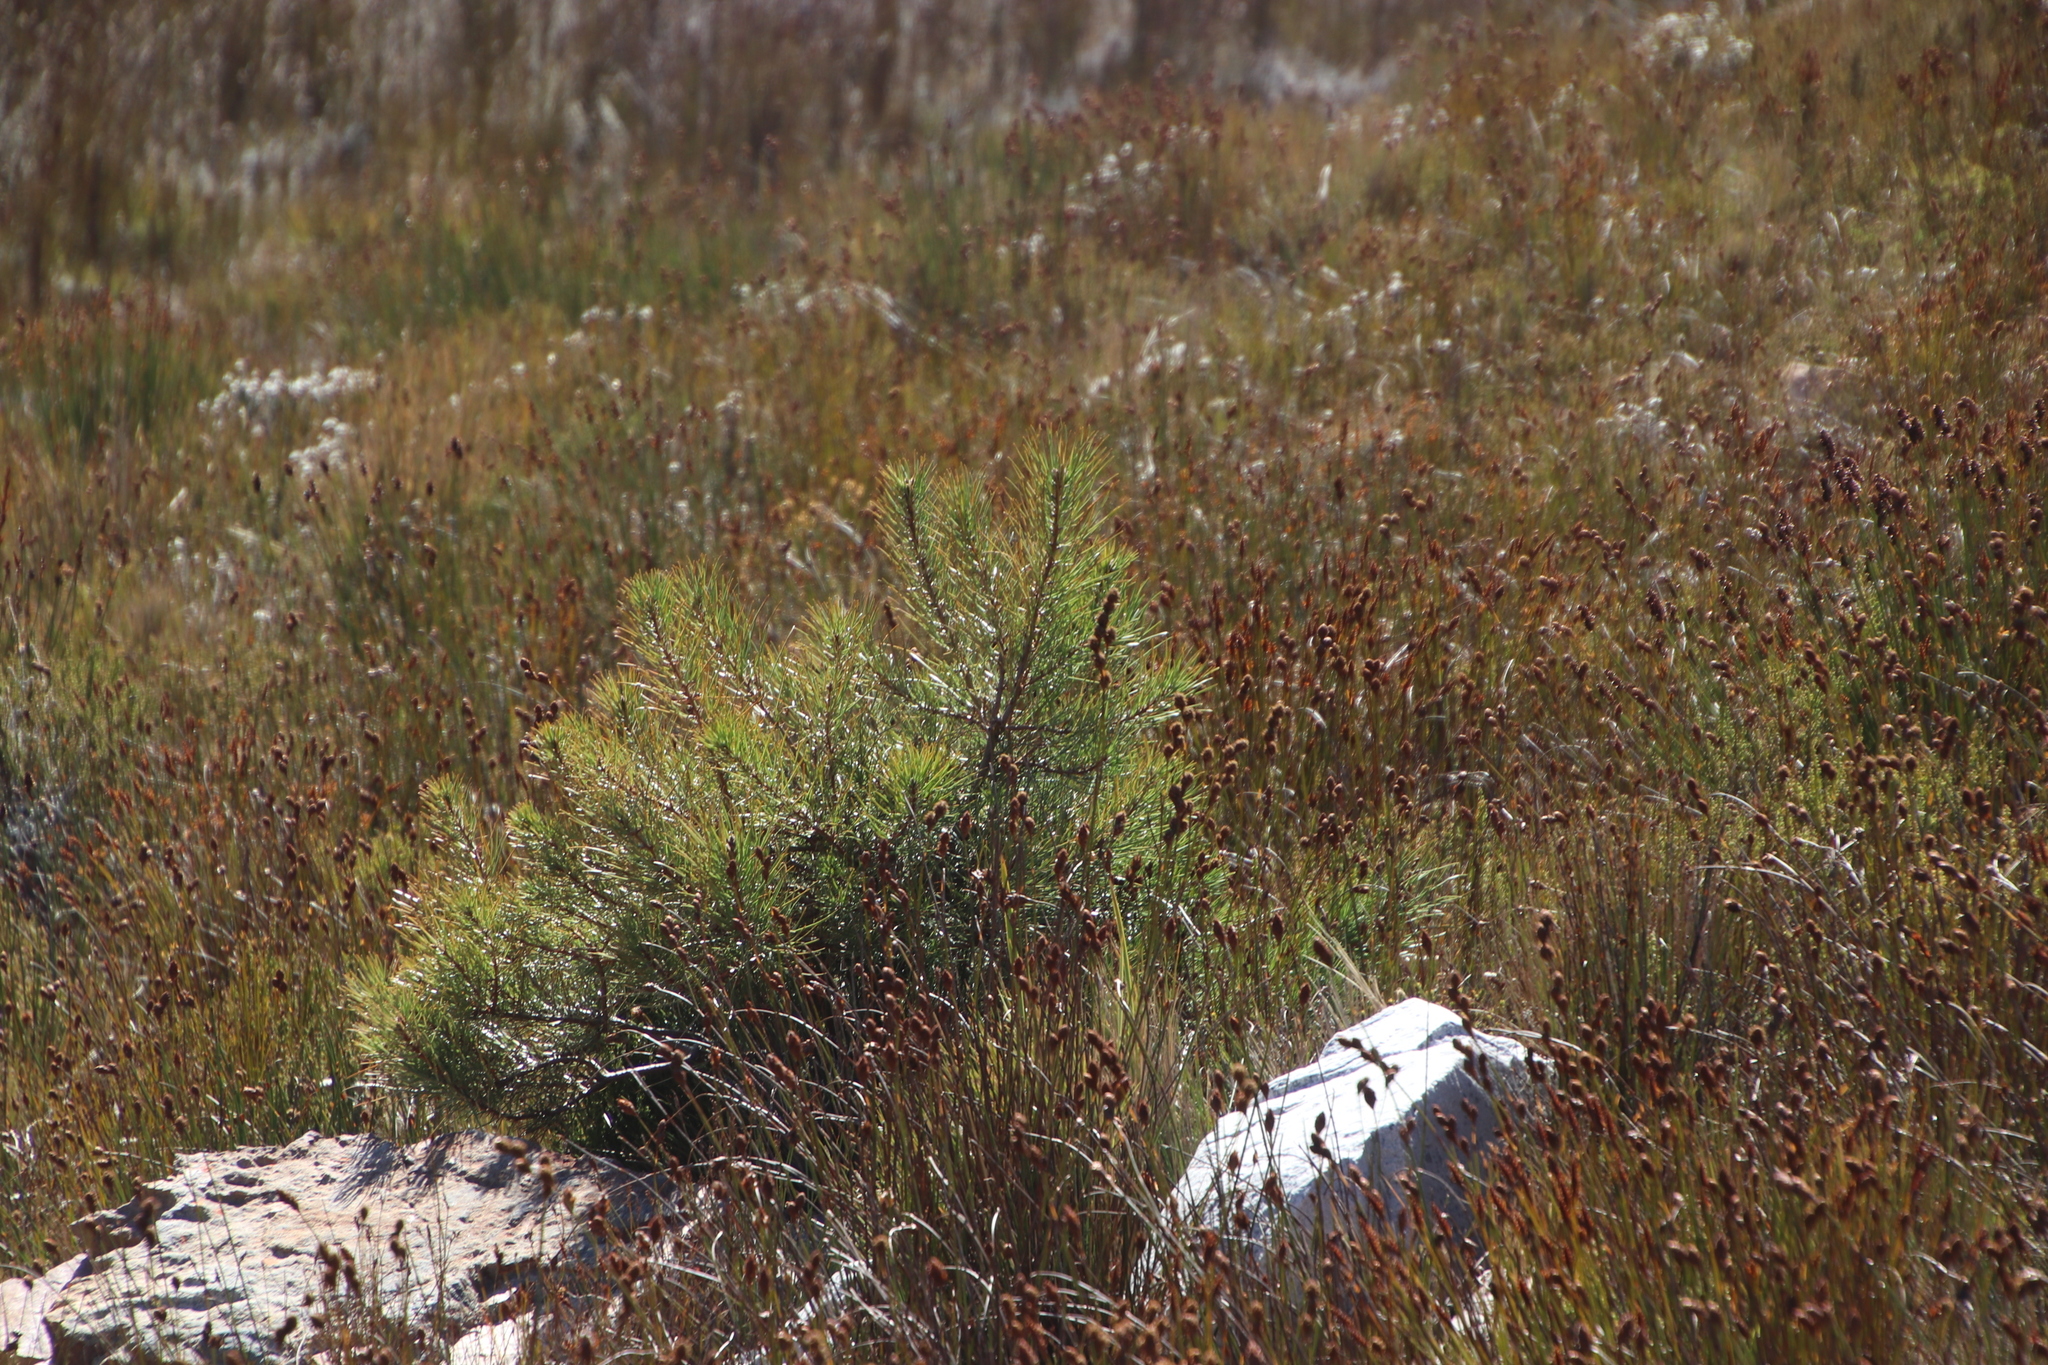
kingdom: Plantae
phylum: Tracheophyta
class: Pinopsida
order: Pinales
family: Pinaceae
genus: Pinus
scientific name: Pinus pinaster
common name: Maritime pine
